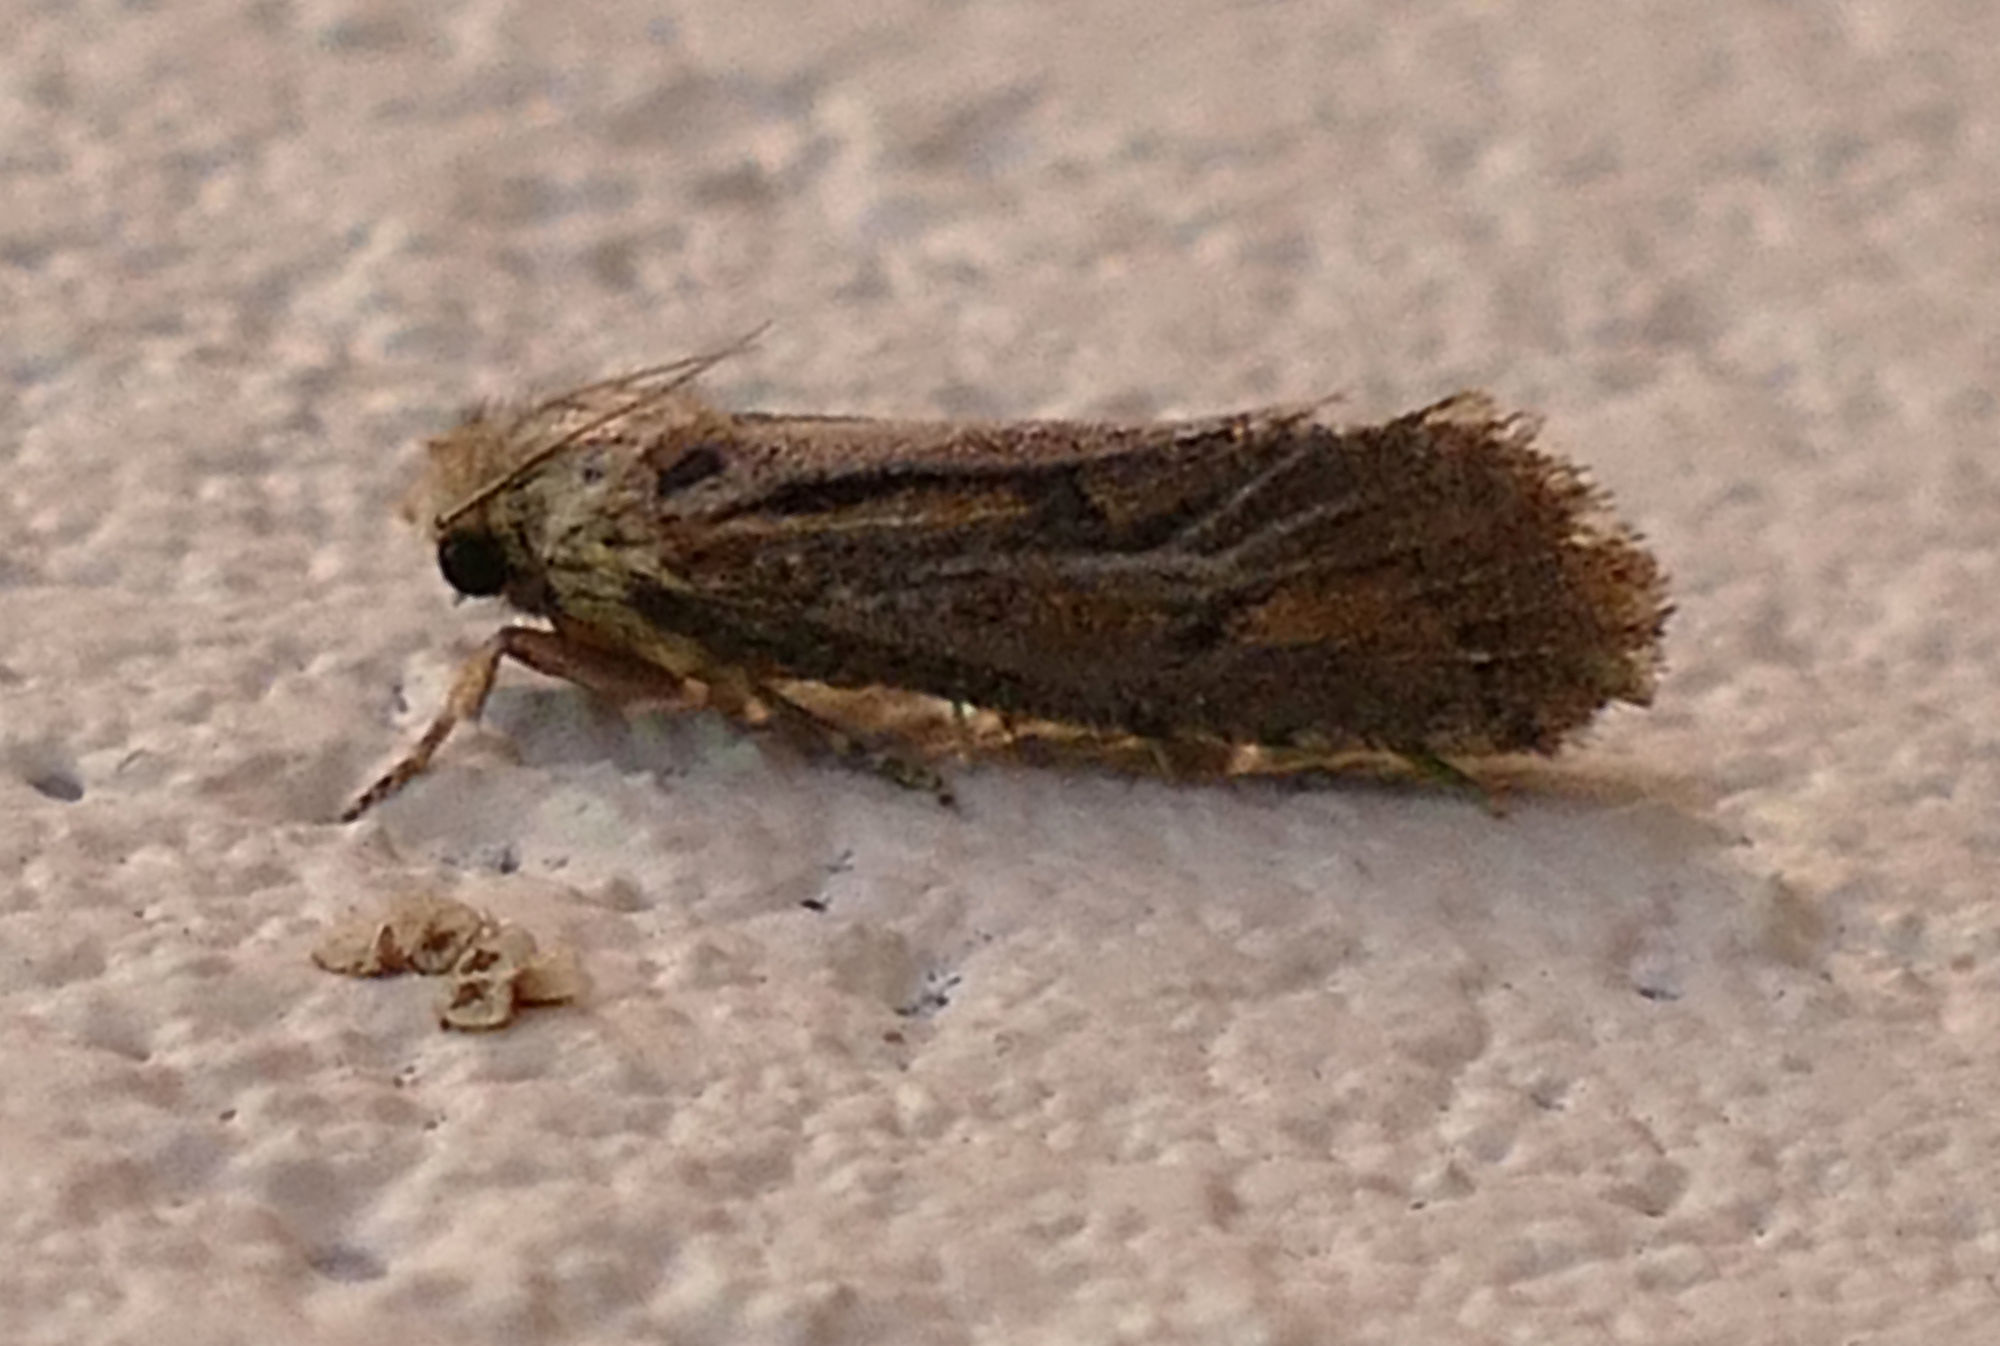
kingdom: Animalia
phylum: Arthropoda
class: Insecta
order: Lepidoptera
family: Tineidae
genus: Acrolophus
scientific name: Acrolophus popeanella
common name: Clemens' grass tubeworm moth
